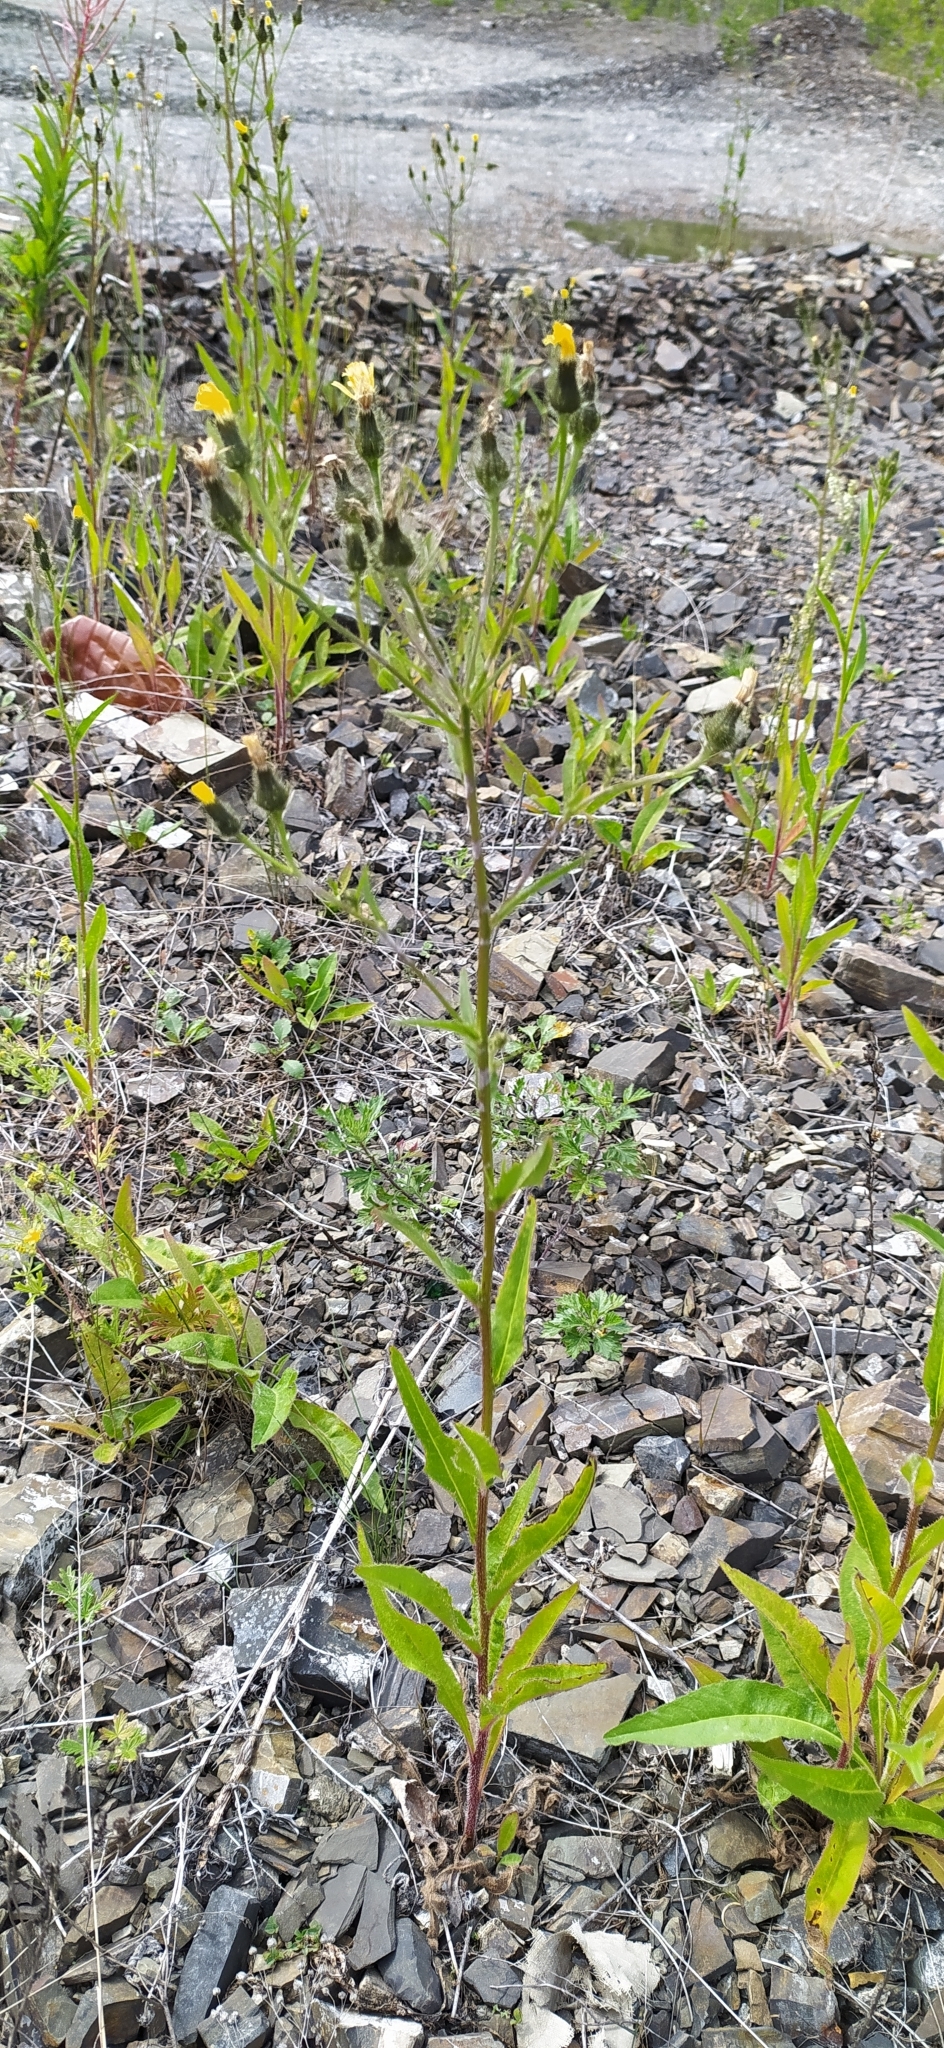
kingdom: Plantae
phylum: Tracheophyta
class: Magnoliopsida
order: Asterales
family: Asteraceae
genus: Picris
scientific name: Picris hieracioides
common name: Hawkweed oxtongue
